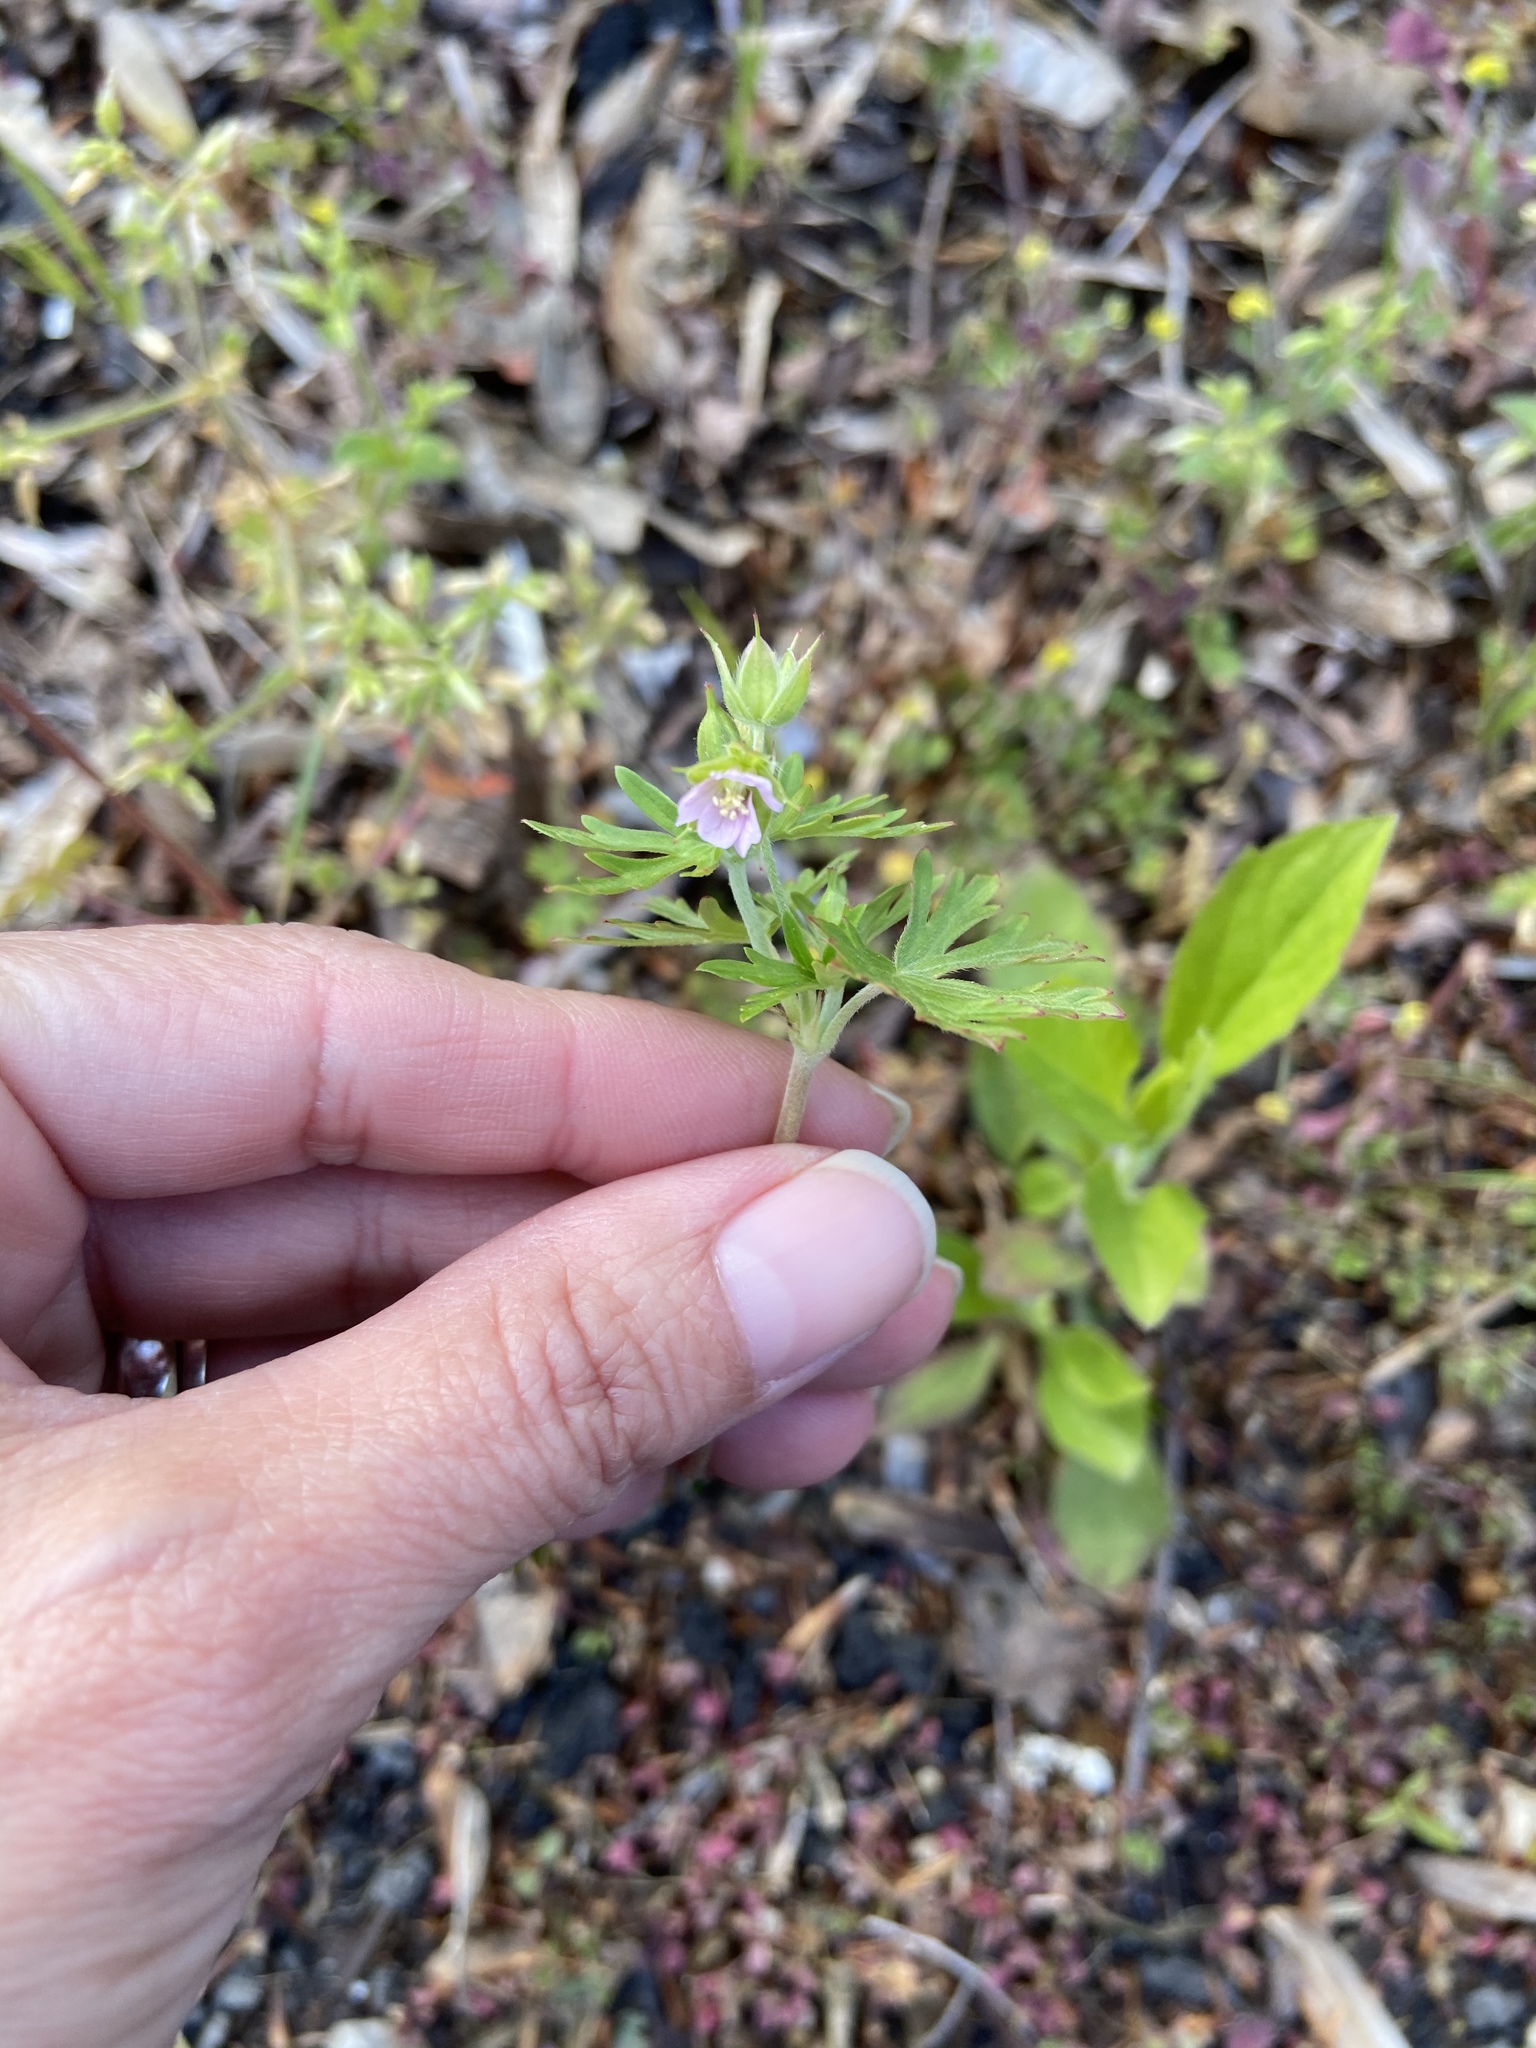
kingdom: Plantae
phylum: Tracheophyta
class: Magnoliopsida
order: Geraniales
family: Geraniaceae
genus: Geranium
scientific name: Geranium dissectum
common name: Cut-leaved crane's-bill
